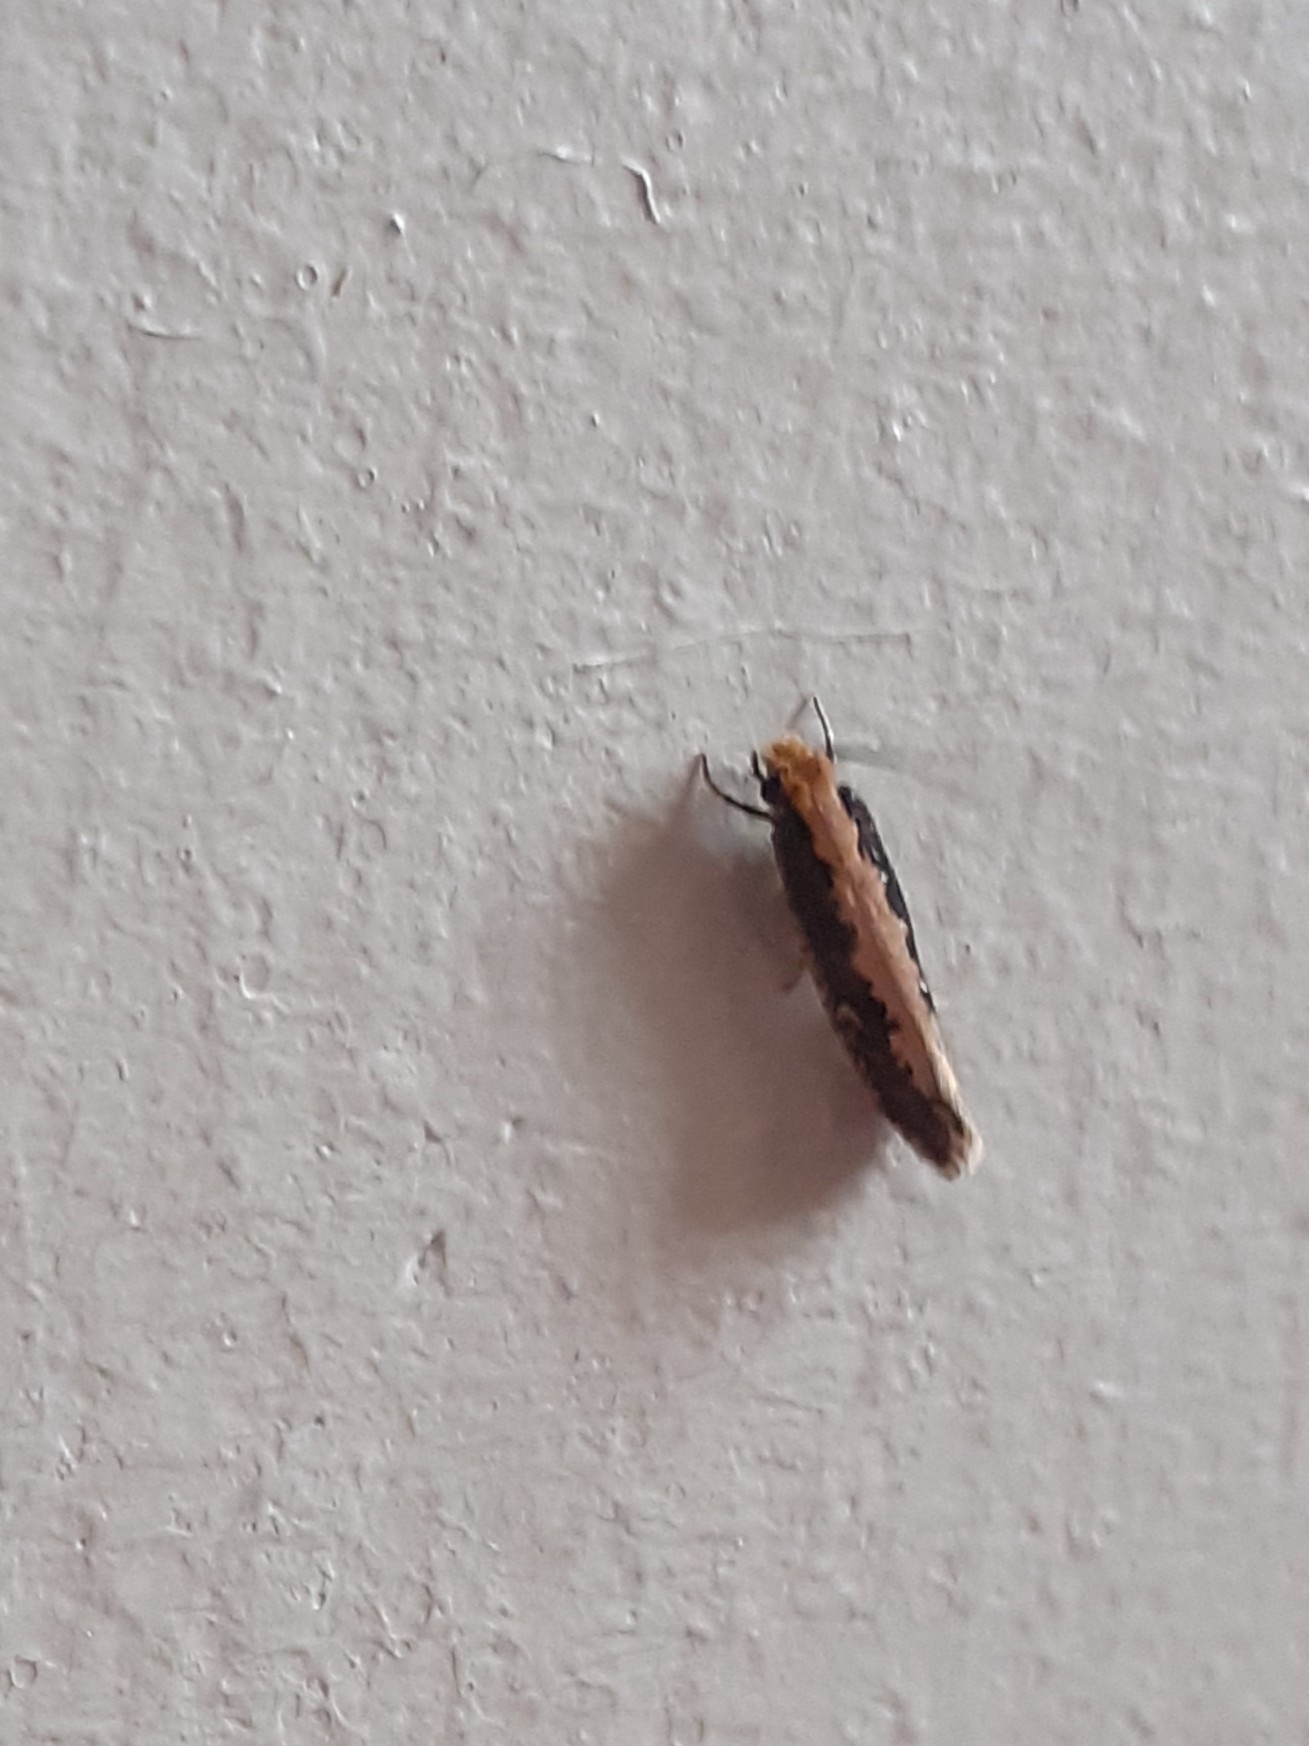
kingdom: Animalia
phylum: Arthropoda
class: Insecta
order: Lepidoptera
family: Plutellidae
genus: Plutella
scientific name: Plutella xylostella
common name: Diamond-back moth
